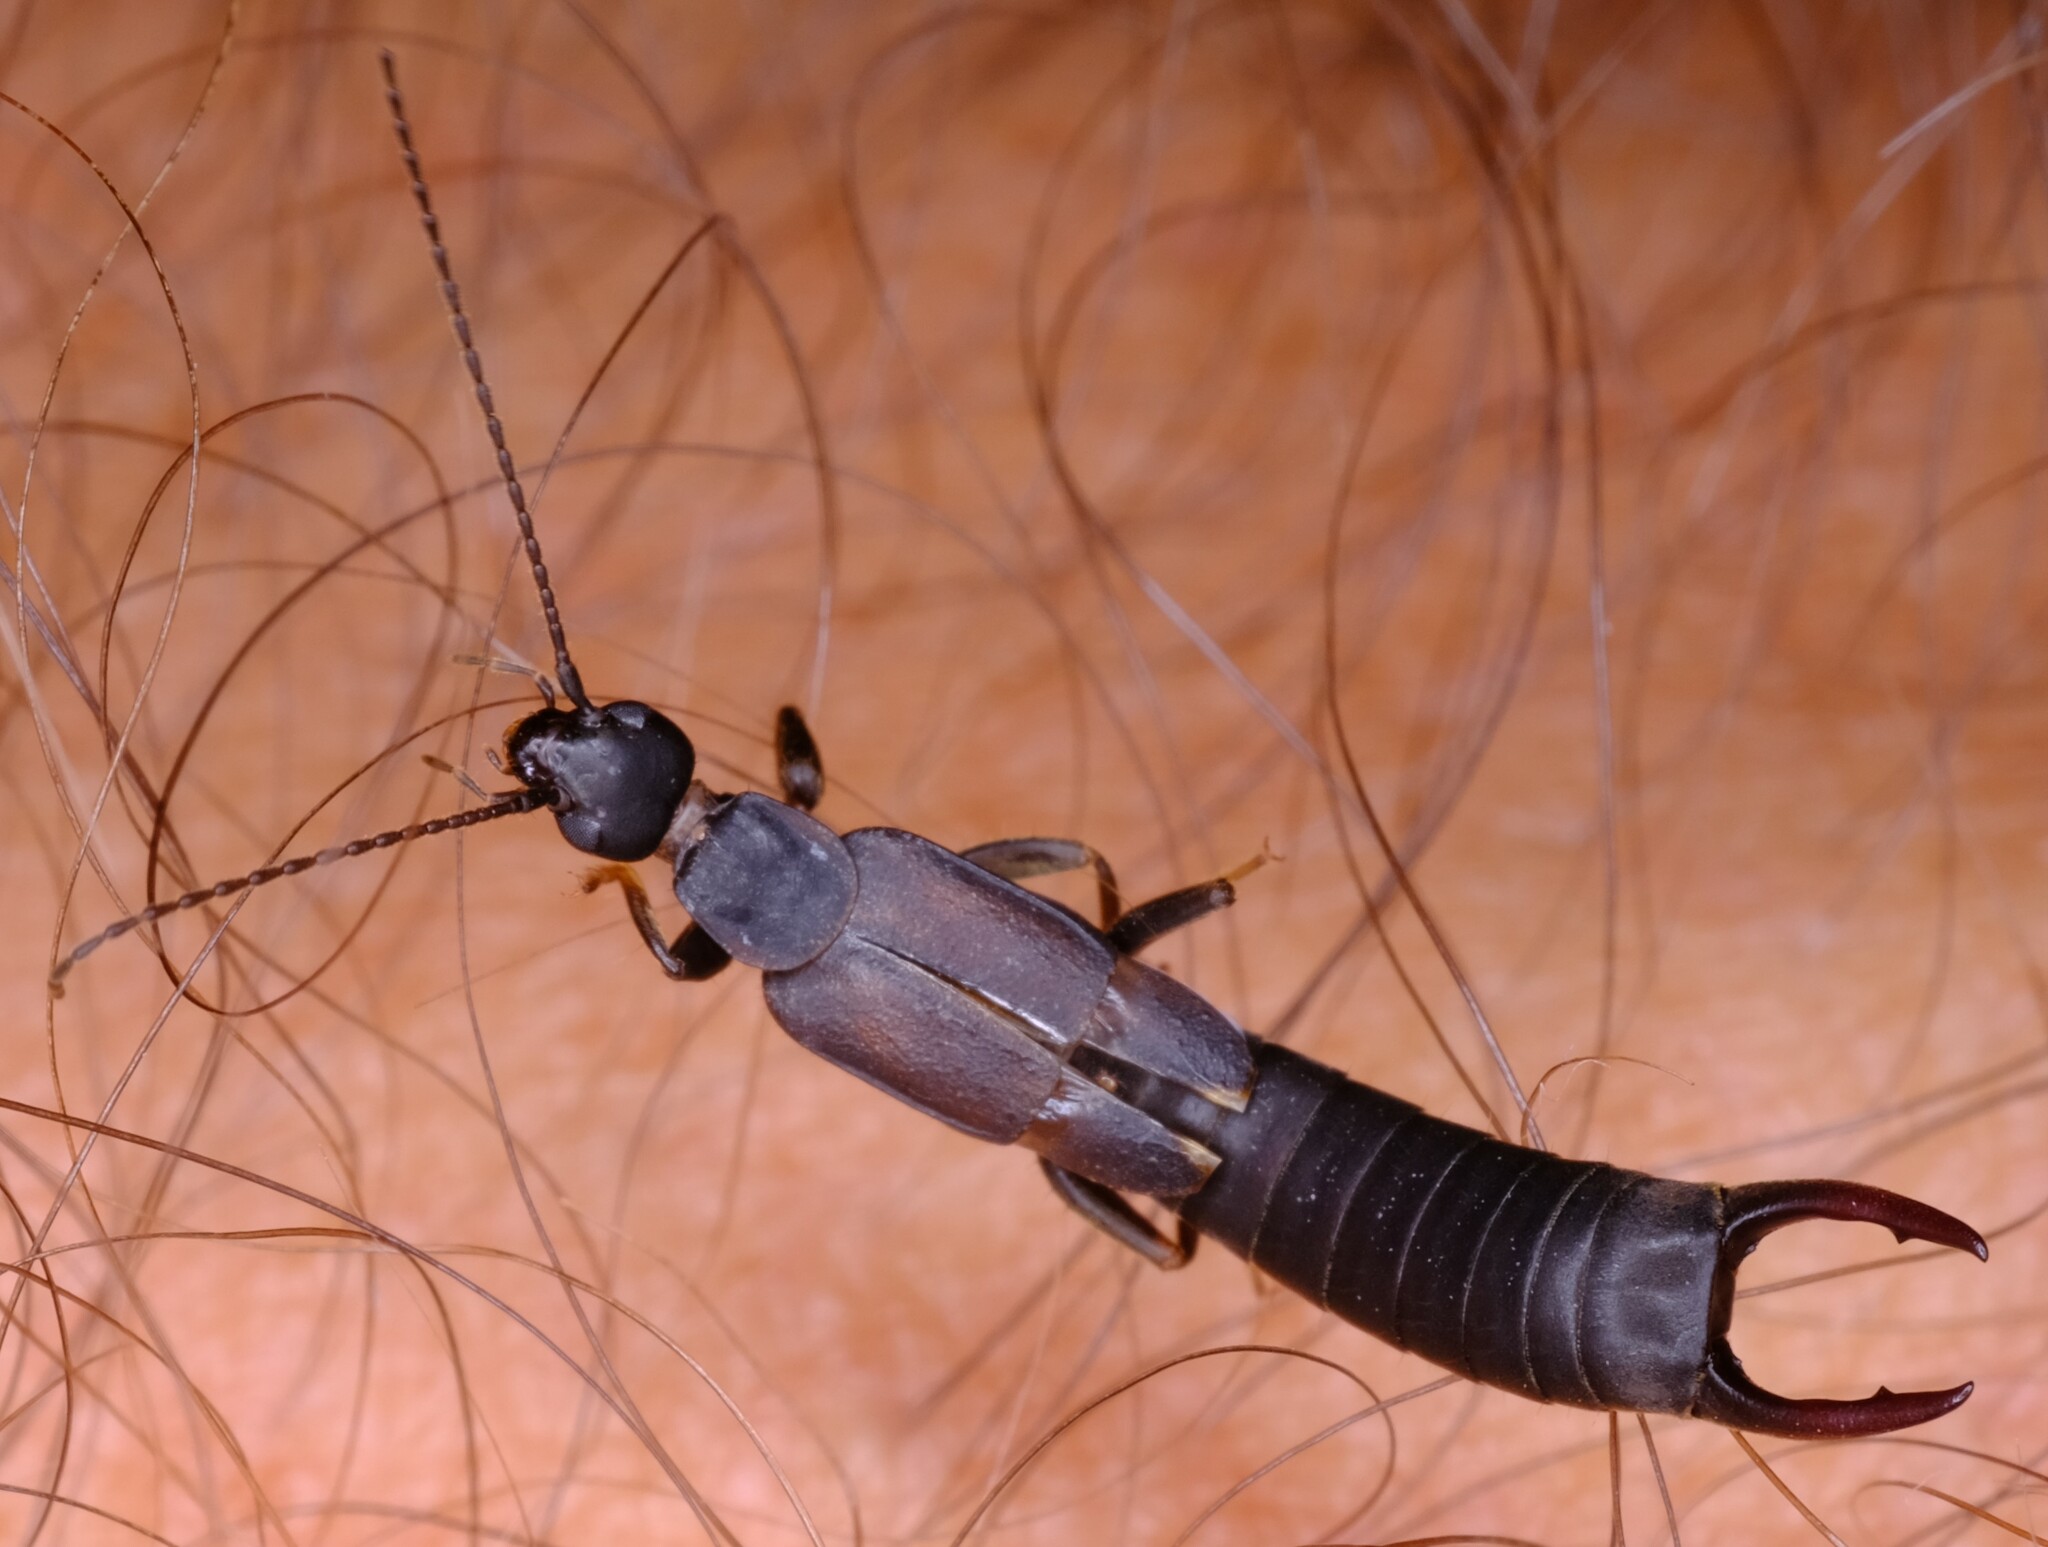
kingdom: Animalia
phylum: Arthropoda
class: Insecta
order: Dermaptera
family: Labiduridae
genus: Nala
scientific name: Nala lividipes
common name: Earwig
